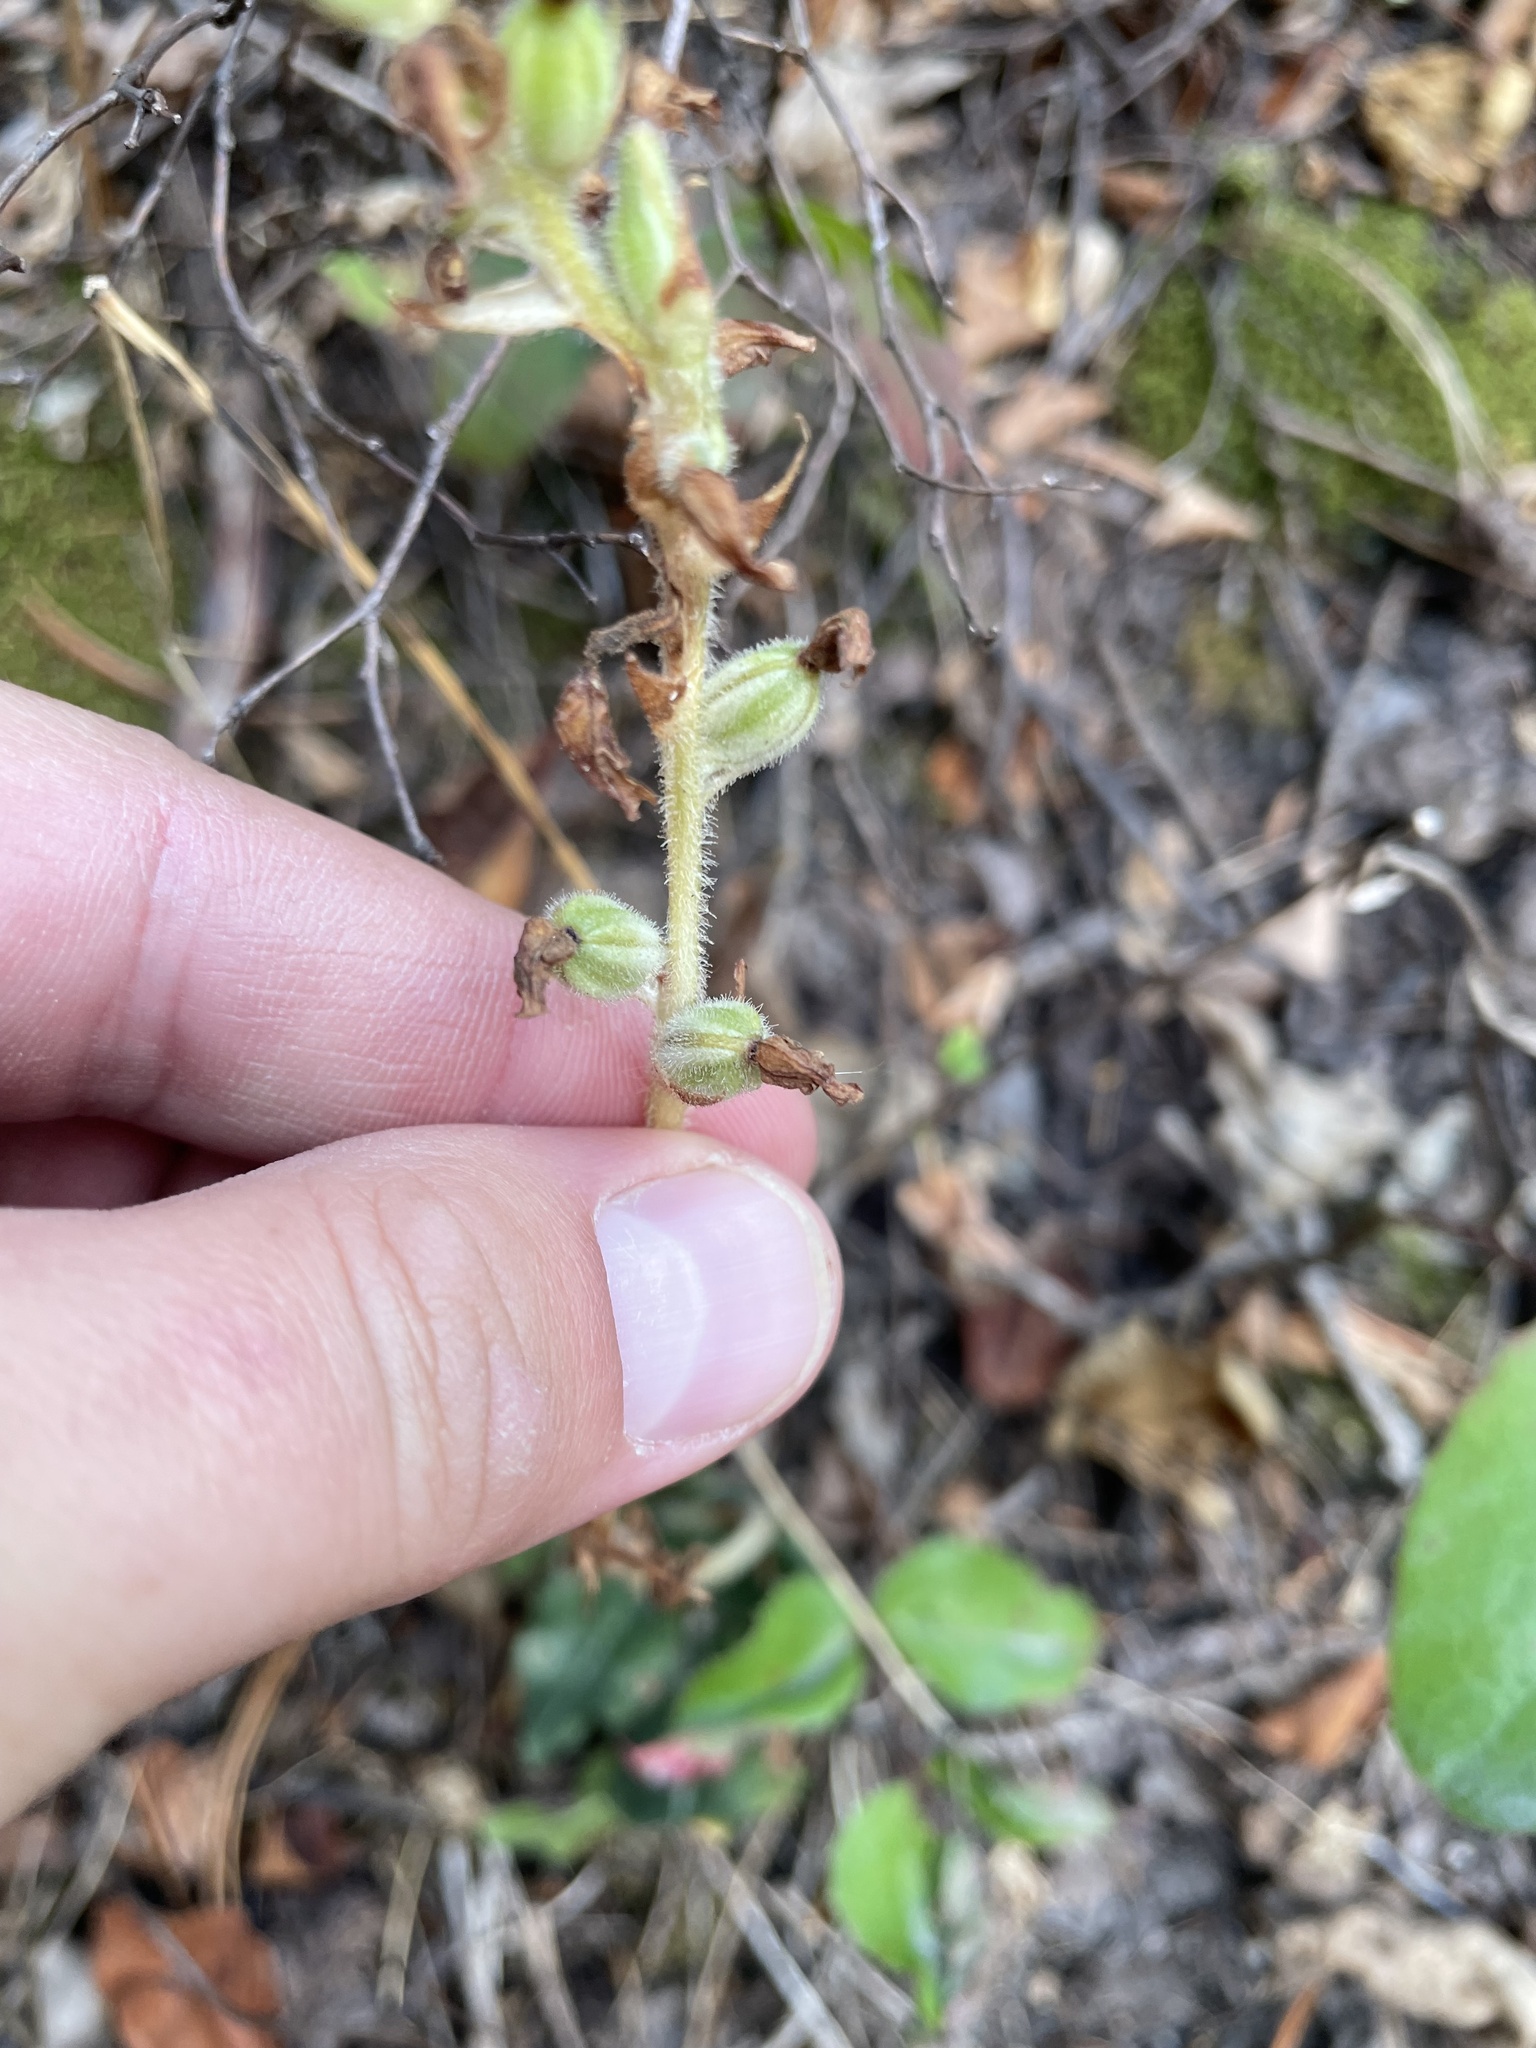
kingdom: Plantae
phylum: Tracheophyta
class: Liliopsida
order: Asparagales
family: Orchidaceae
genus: Goodyera
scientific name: Goodyera oblongifolia
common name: Giant rattlesnake-plantain
